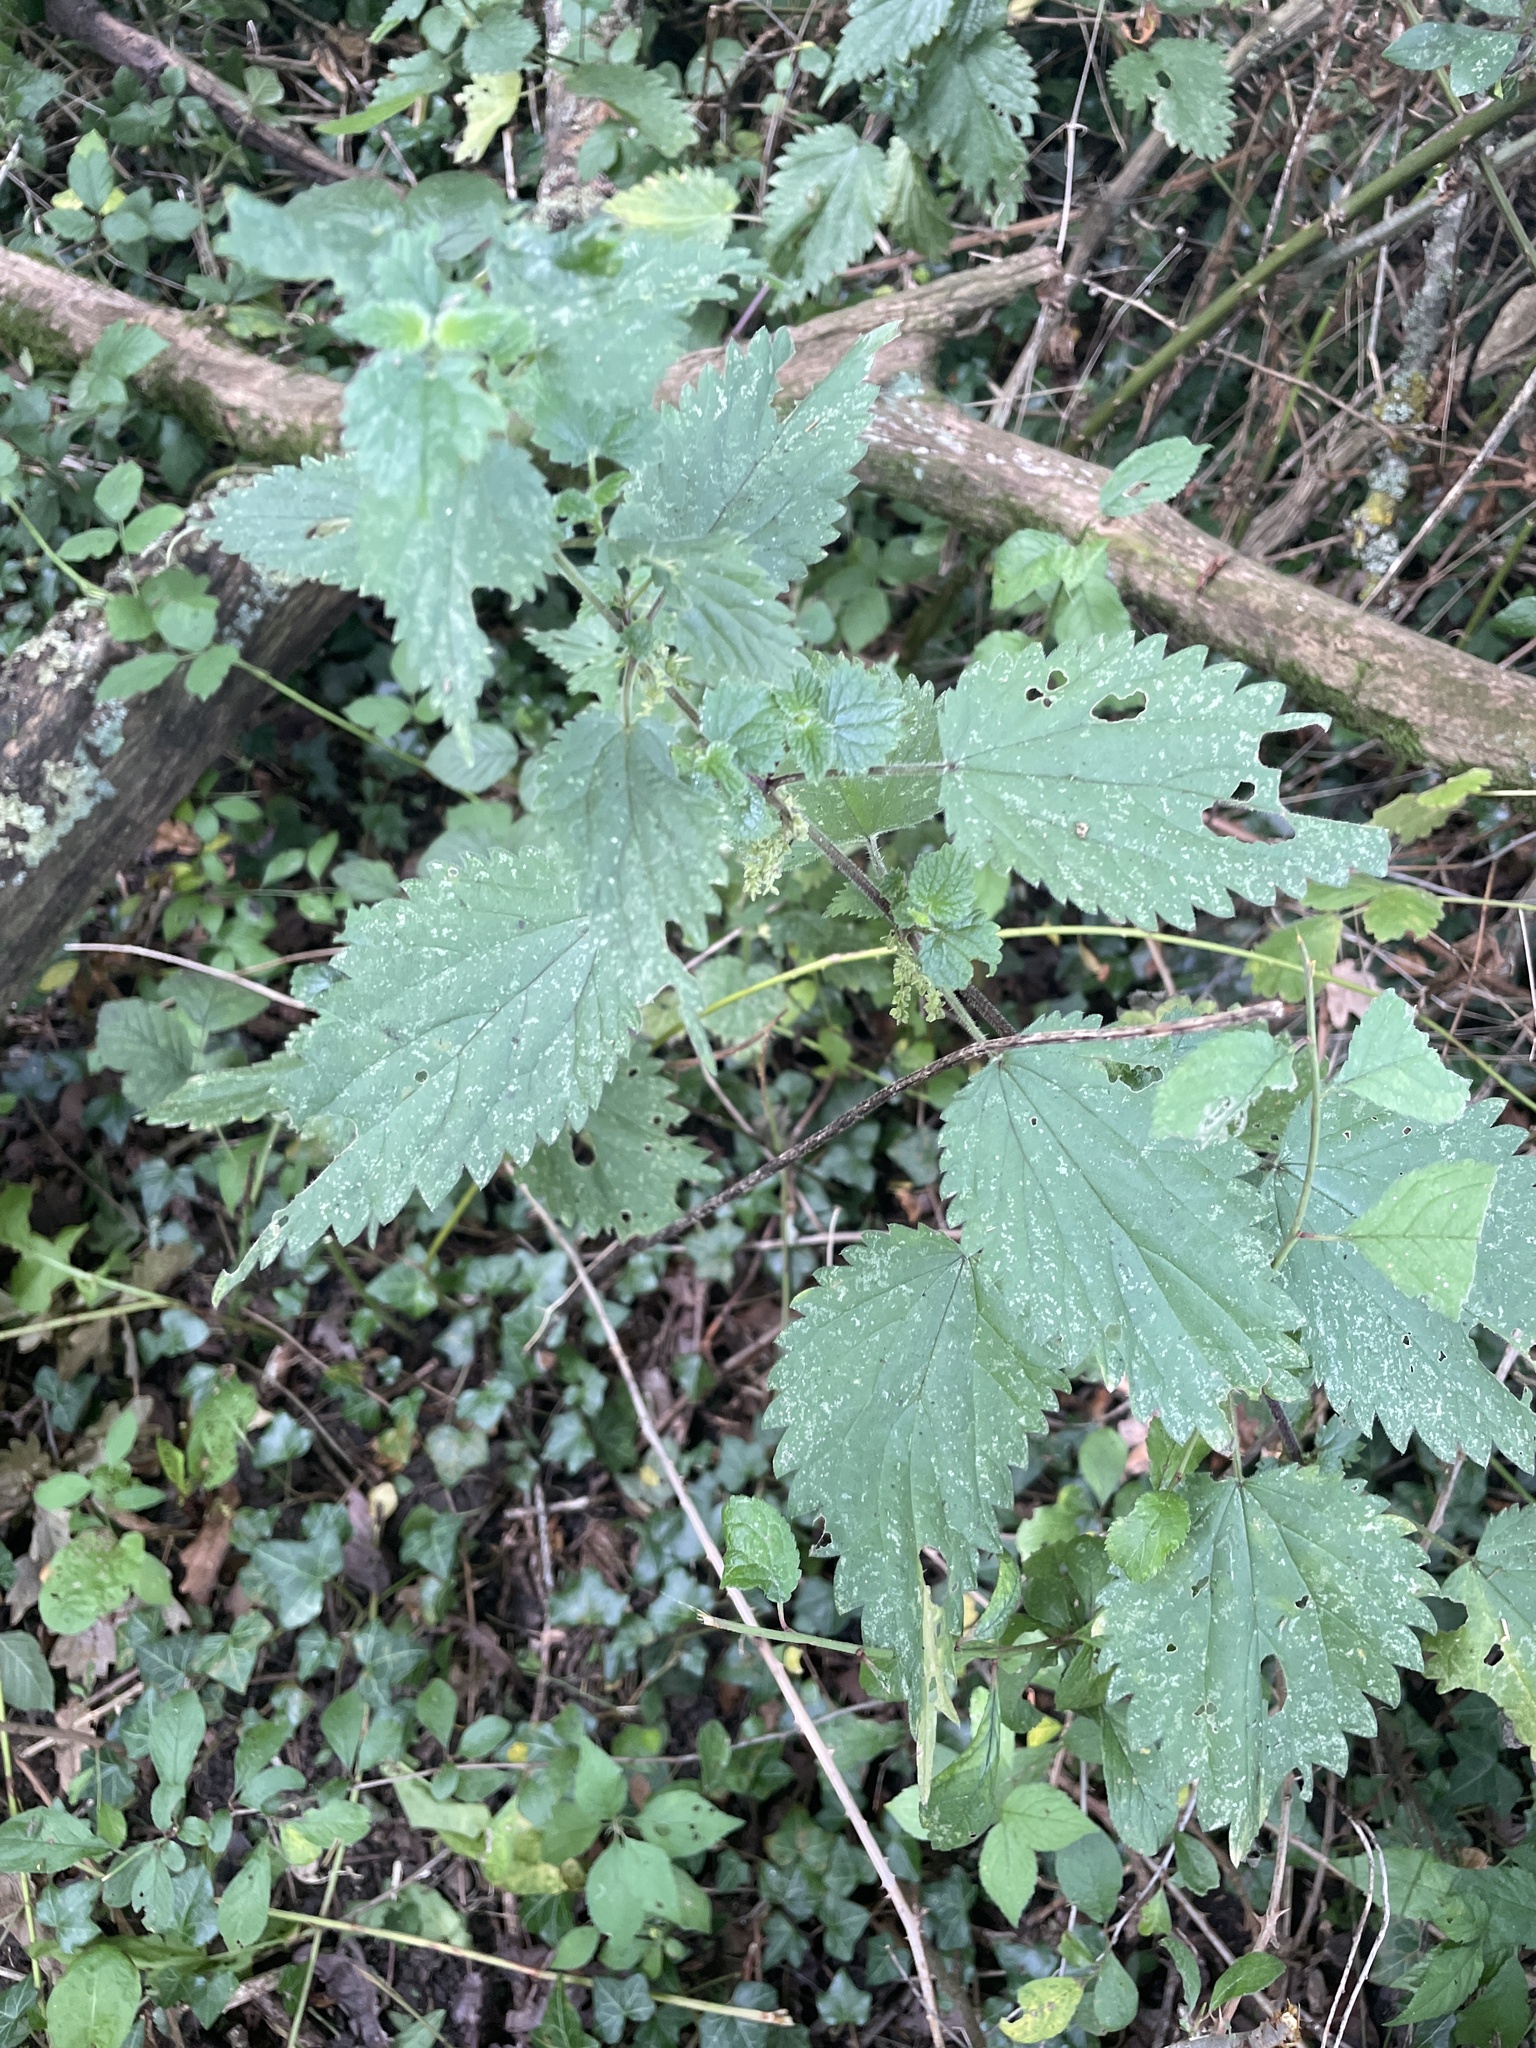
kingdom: Plantae
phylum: Tracheophyta
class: Magnoliopsida
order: Rosales
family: Urticaceae
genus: Urtica
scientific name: Urtica dioica
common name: Common nettle
